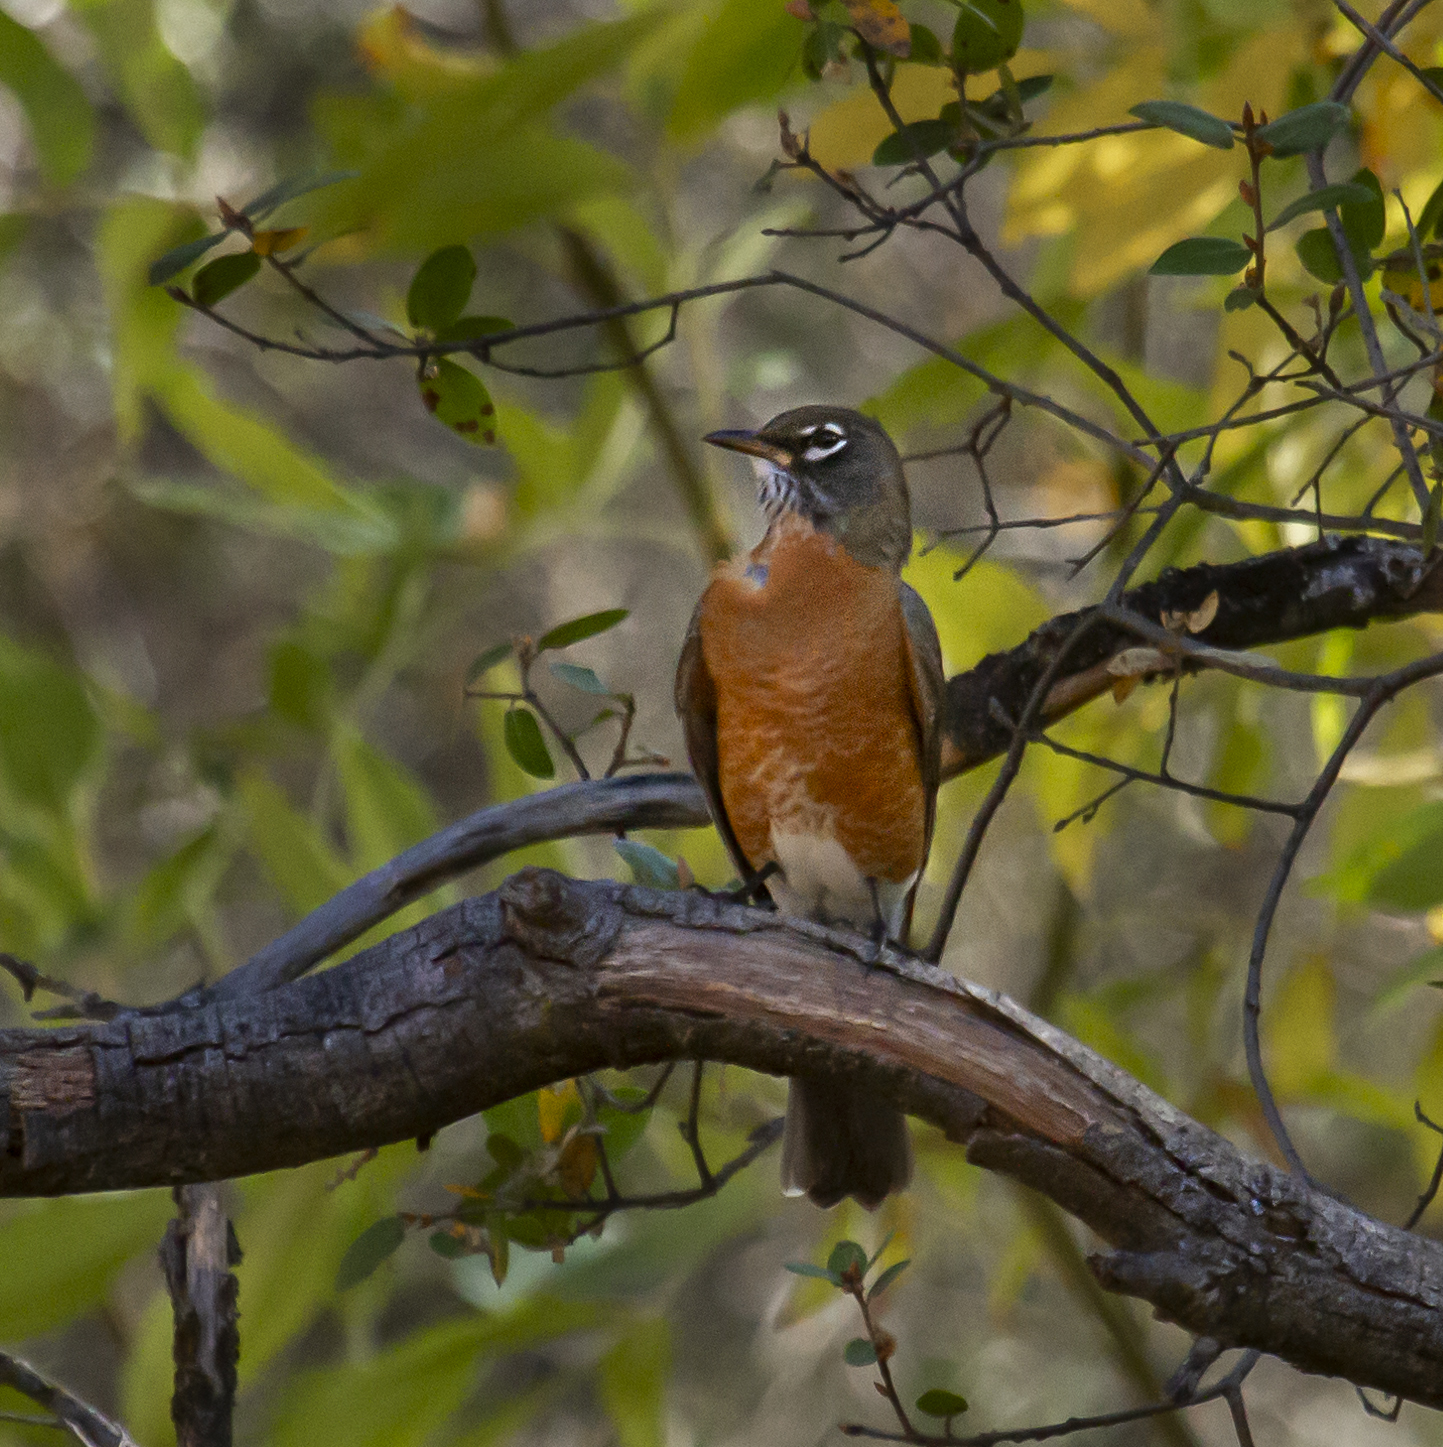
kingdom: Animalia
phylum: Chordata
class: Aves
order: Passeriformes
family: Turdidae
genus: Turdus
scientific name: Turdus migratorius
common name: American robin
